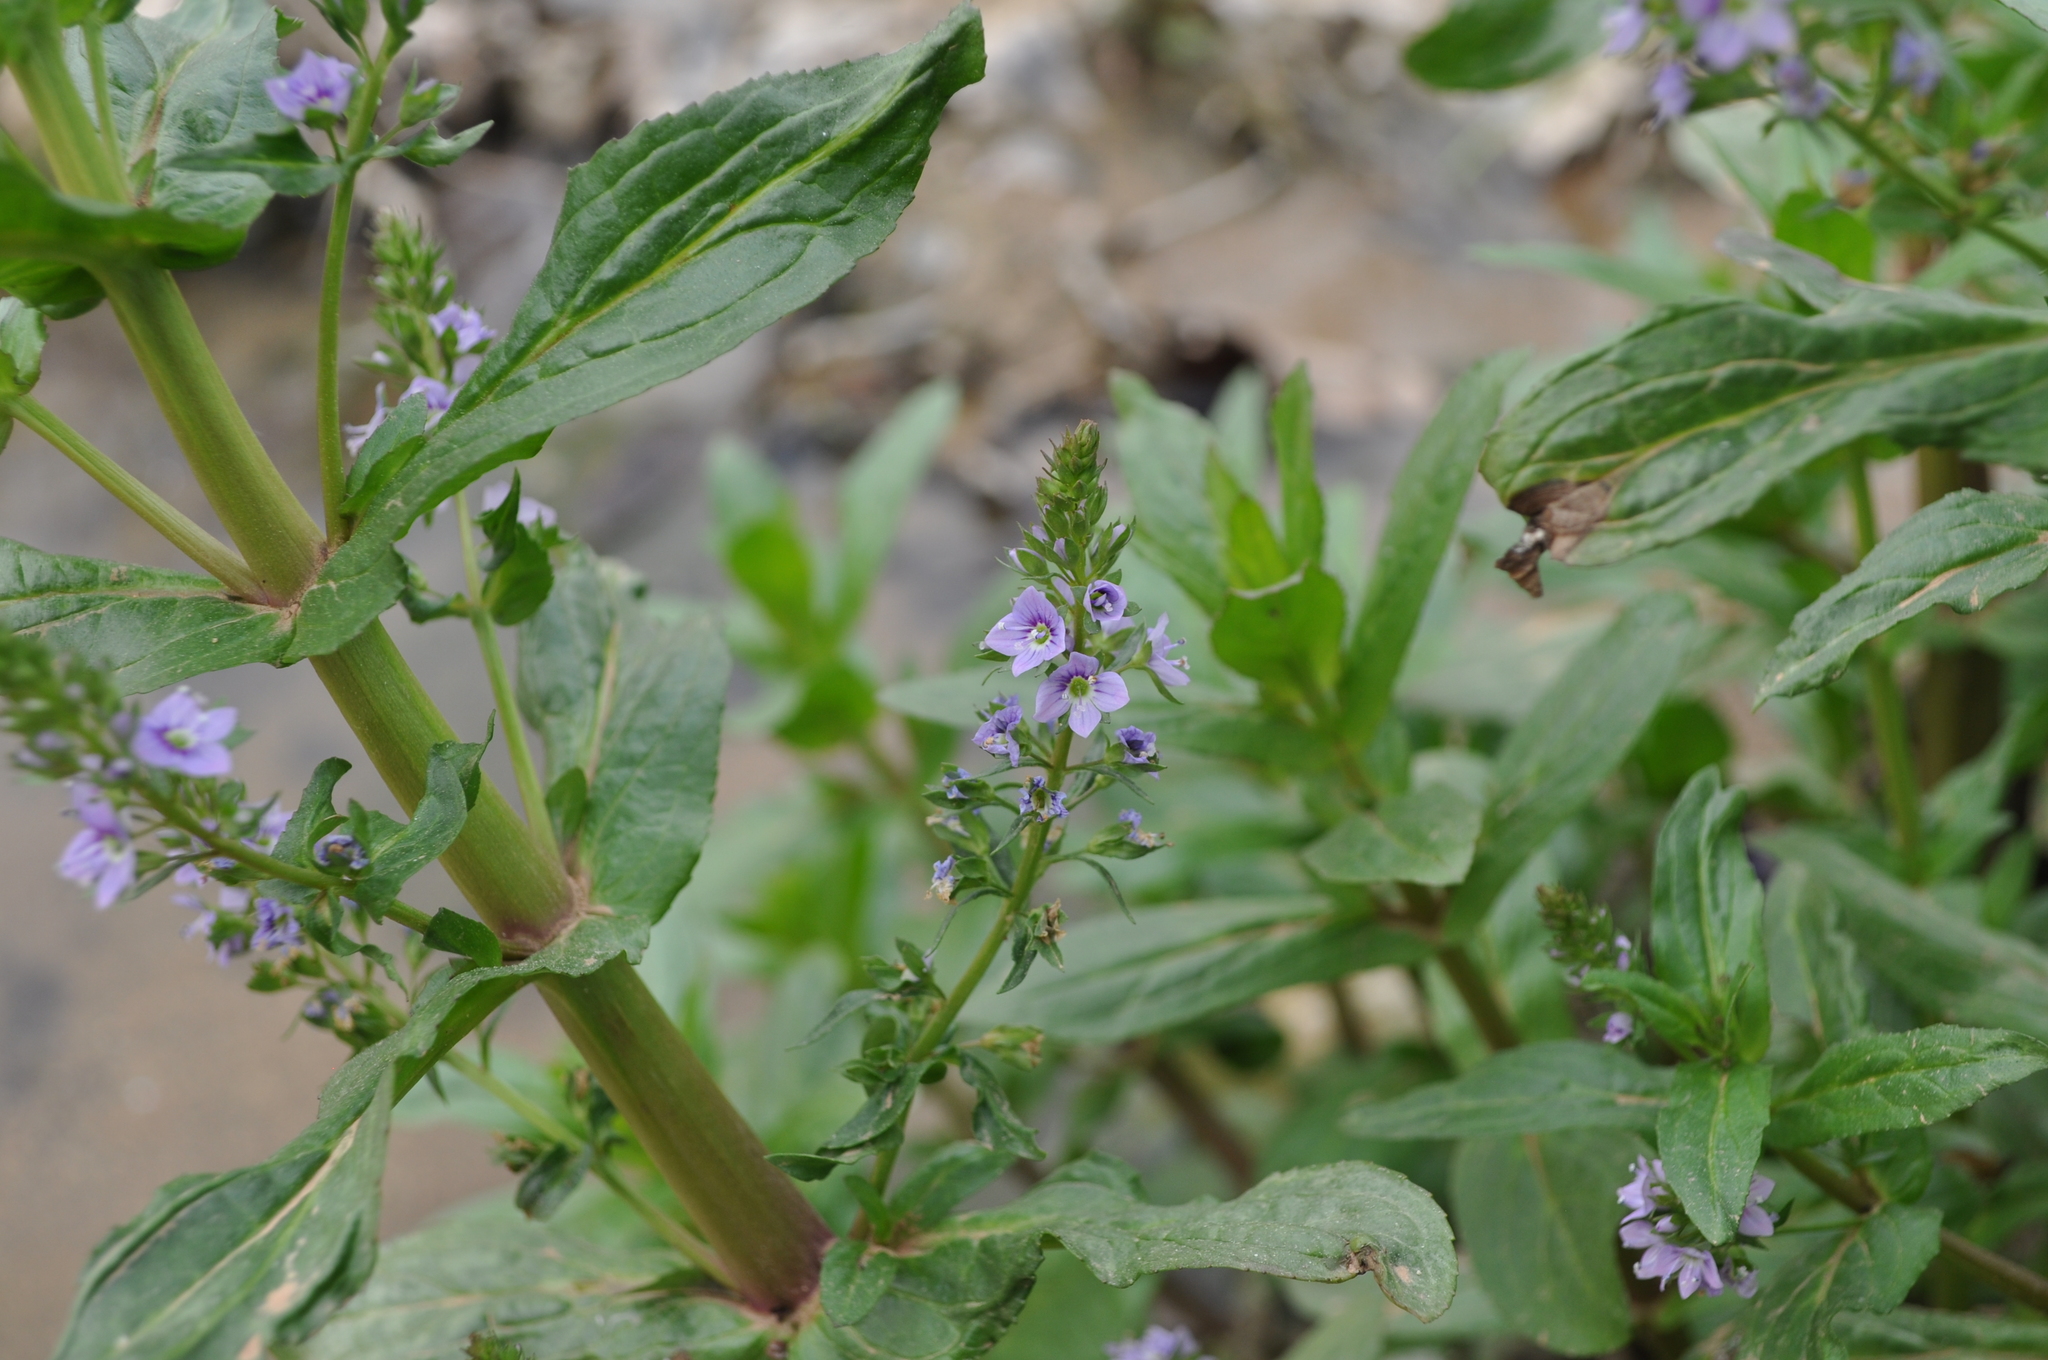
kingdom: Plantae
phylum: Tracheophyta
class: Magnoliopsida
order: Lamiales
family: Plantaginaceae
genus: Veronica
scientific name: Veronica anagallis-aquatica
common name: Water speedwell
